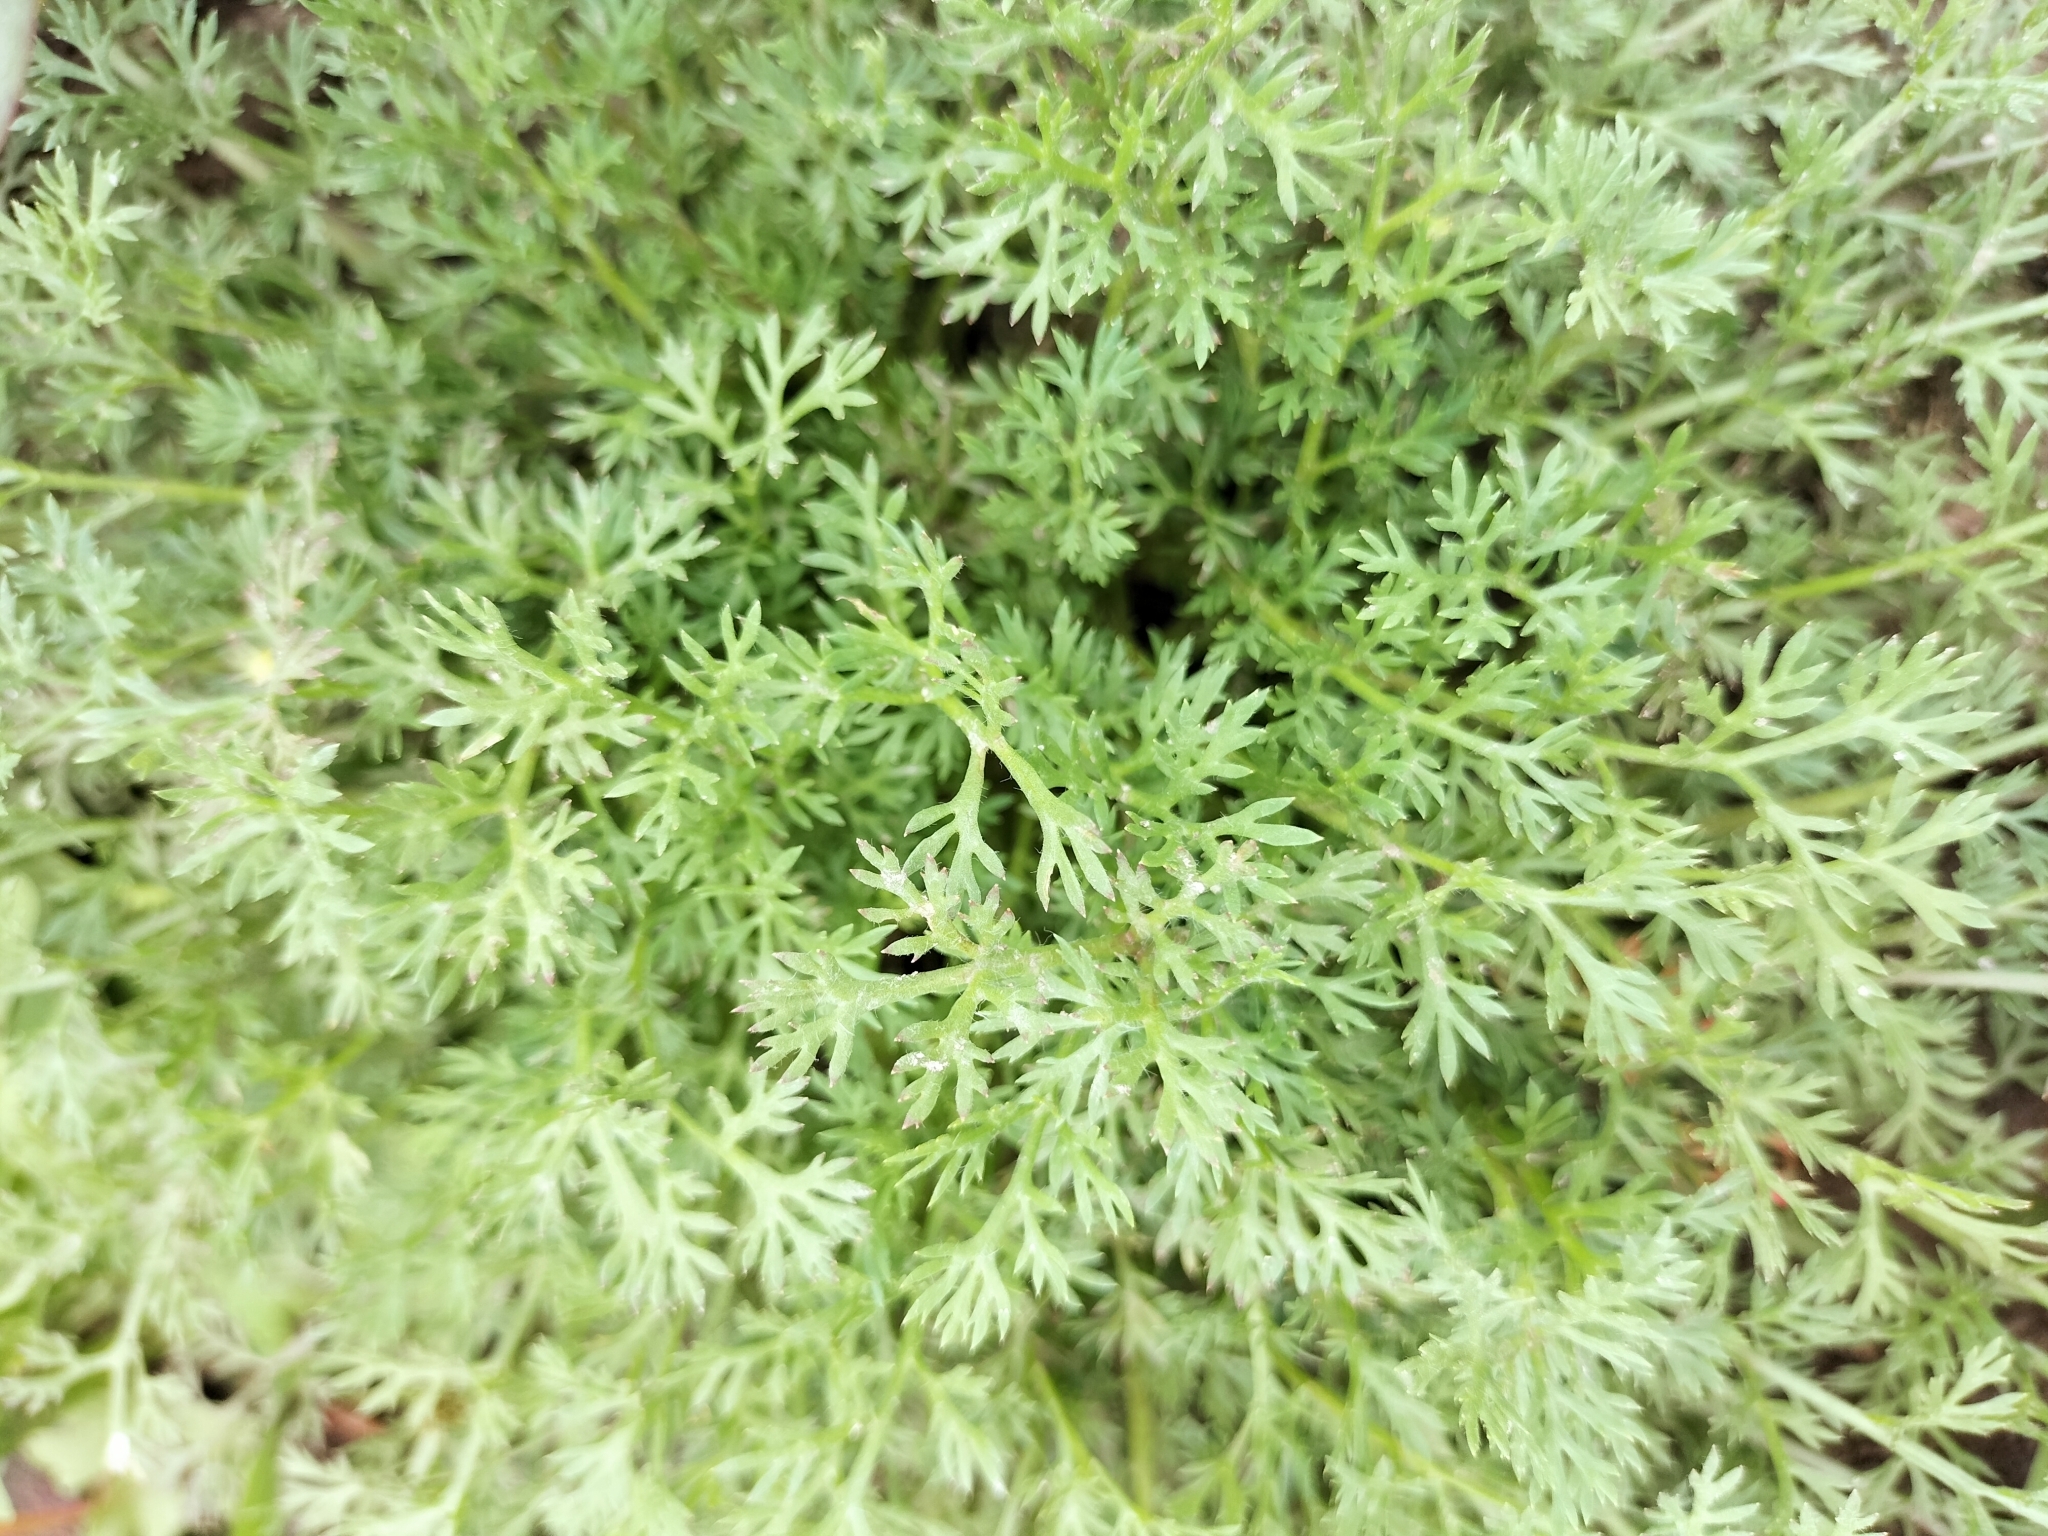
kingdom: Plantae
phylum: Tracheophyta
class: Magnoliopsida
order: Asterales
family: Asteraceae
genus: Soliva
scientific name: Soliva anthemifolia
